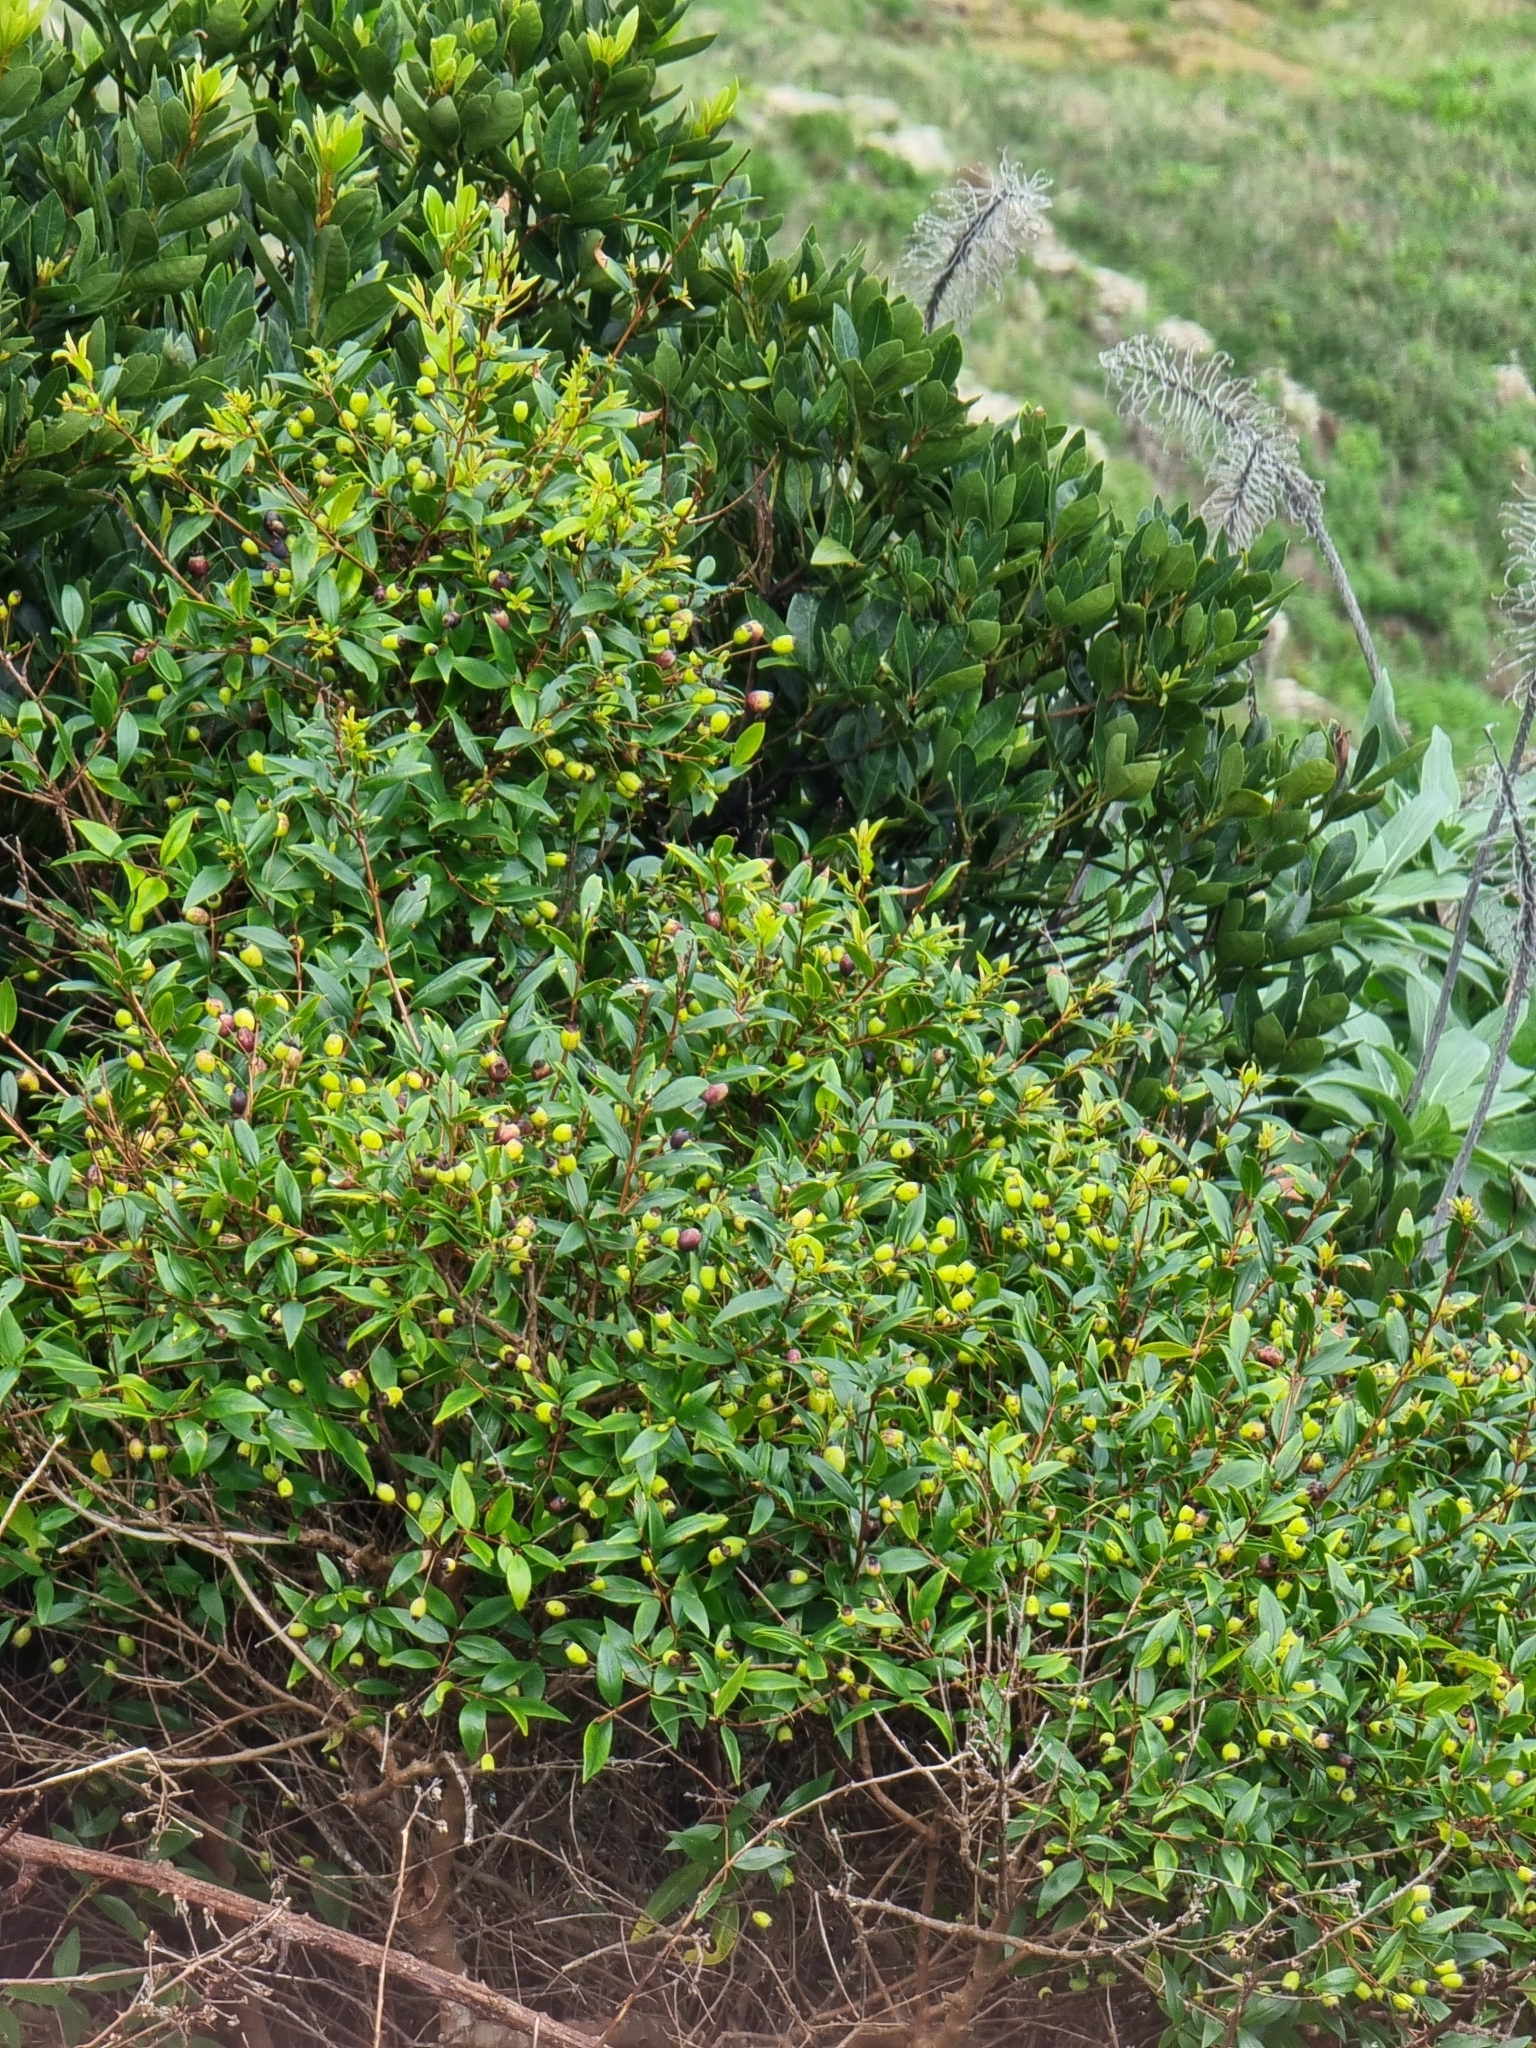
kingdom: Plantae
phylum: Tracheophyta
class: Magnoliopsida
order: Myrtales
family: Myrtaceae
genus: Myrtus
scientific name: Myrtus communis
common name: Myrtle
